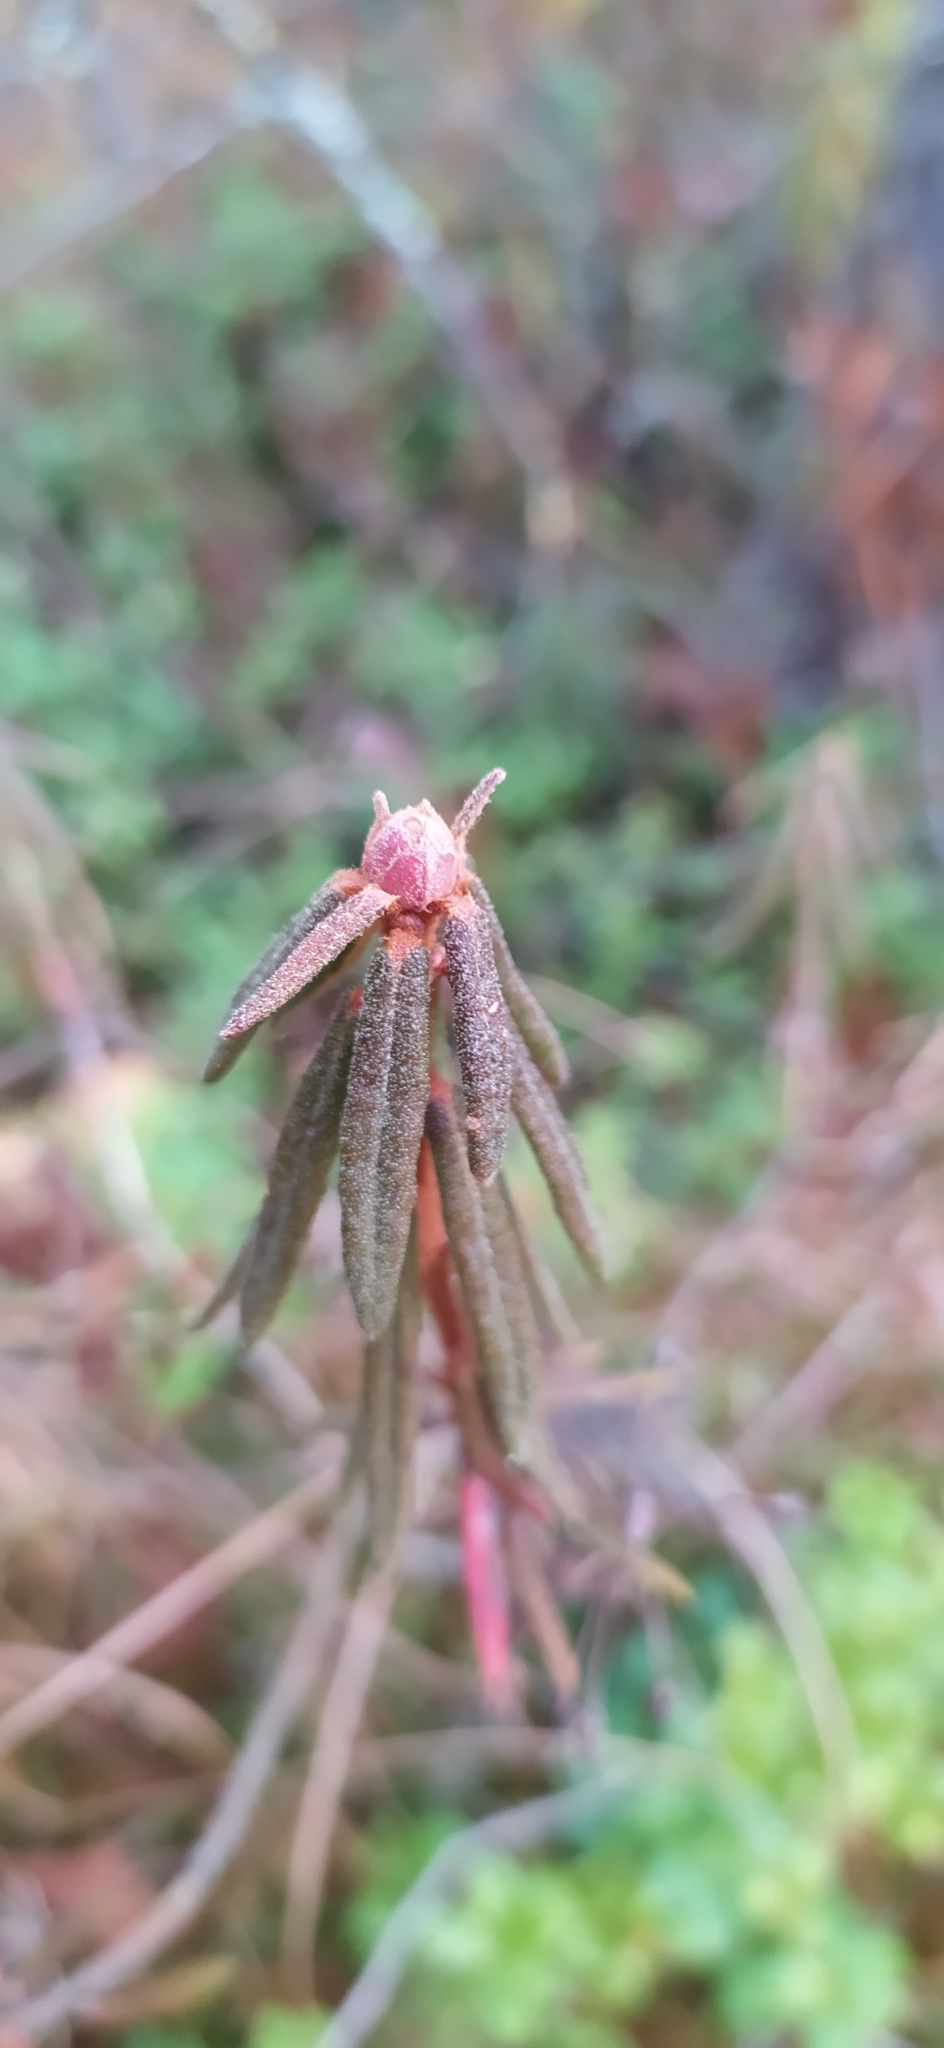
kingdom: Plantae
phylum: Tracheophyta
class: Magnoliopsida
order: Ericales
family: Ericaceae
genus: Rhododendron
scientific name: Rhododendron tomentosum
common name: Marsh labrador tea
